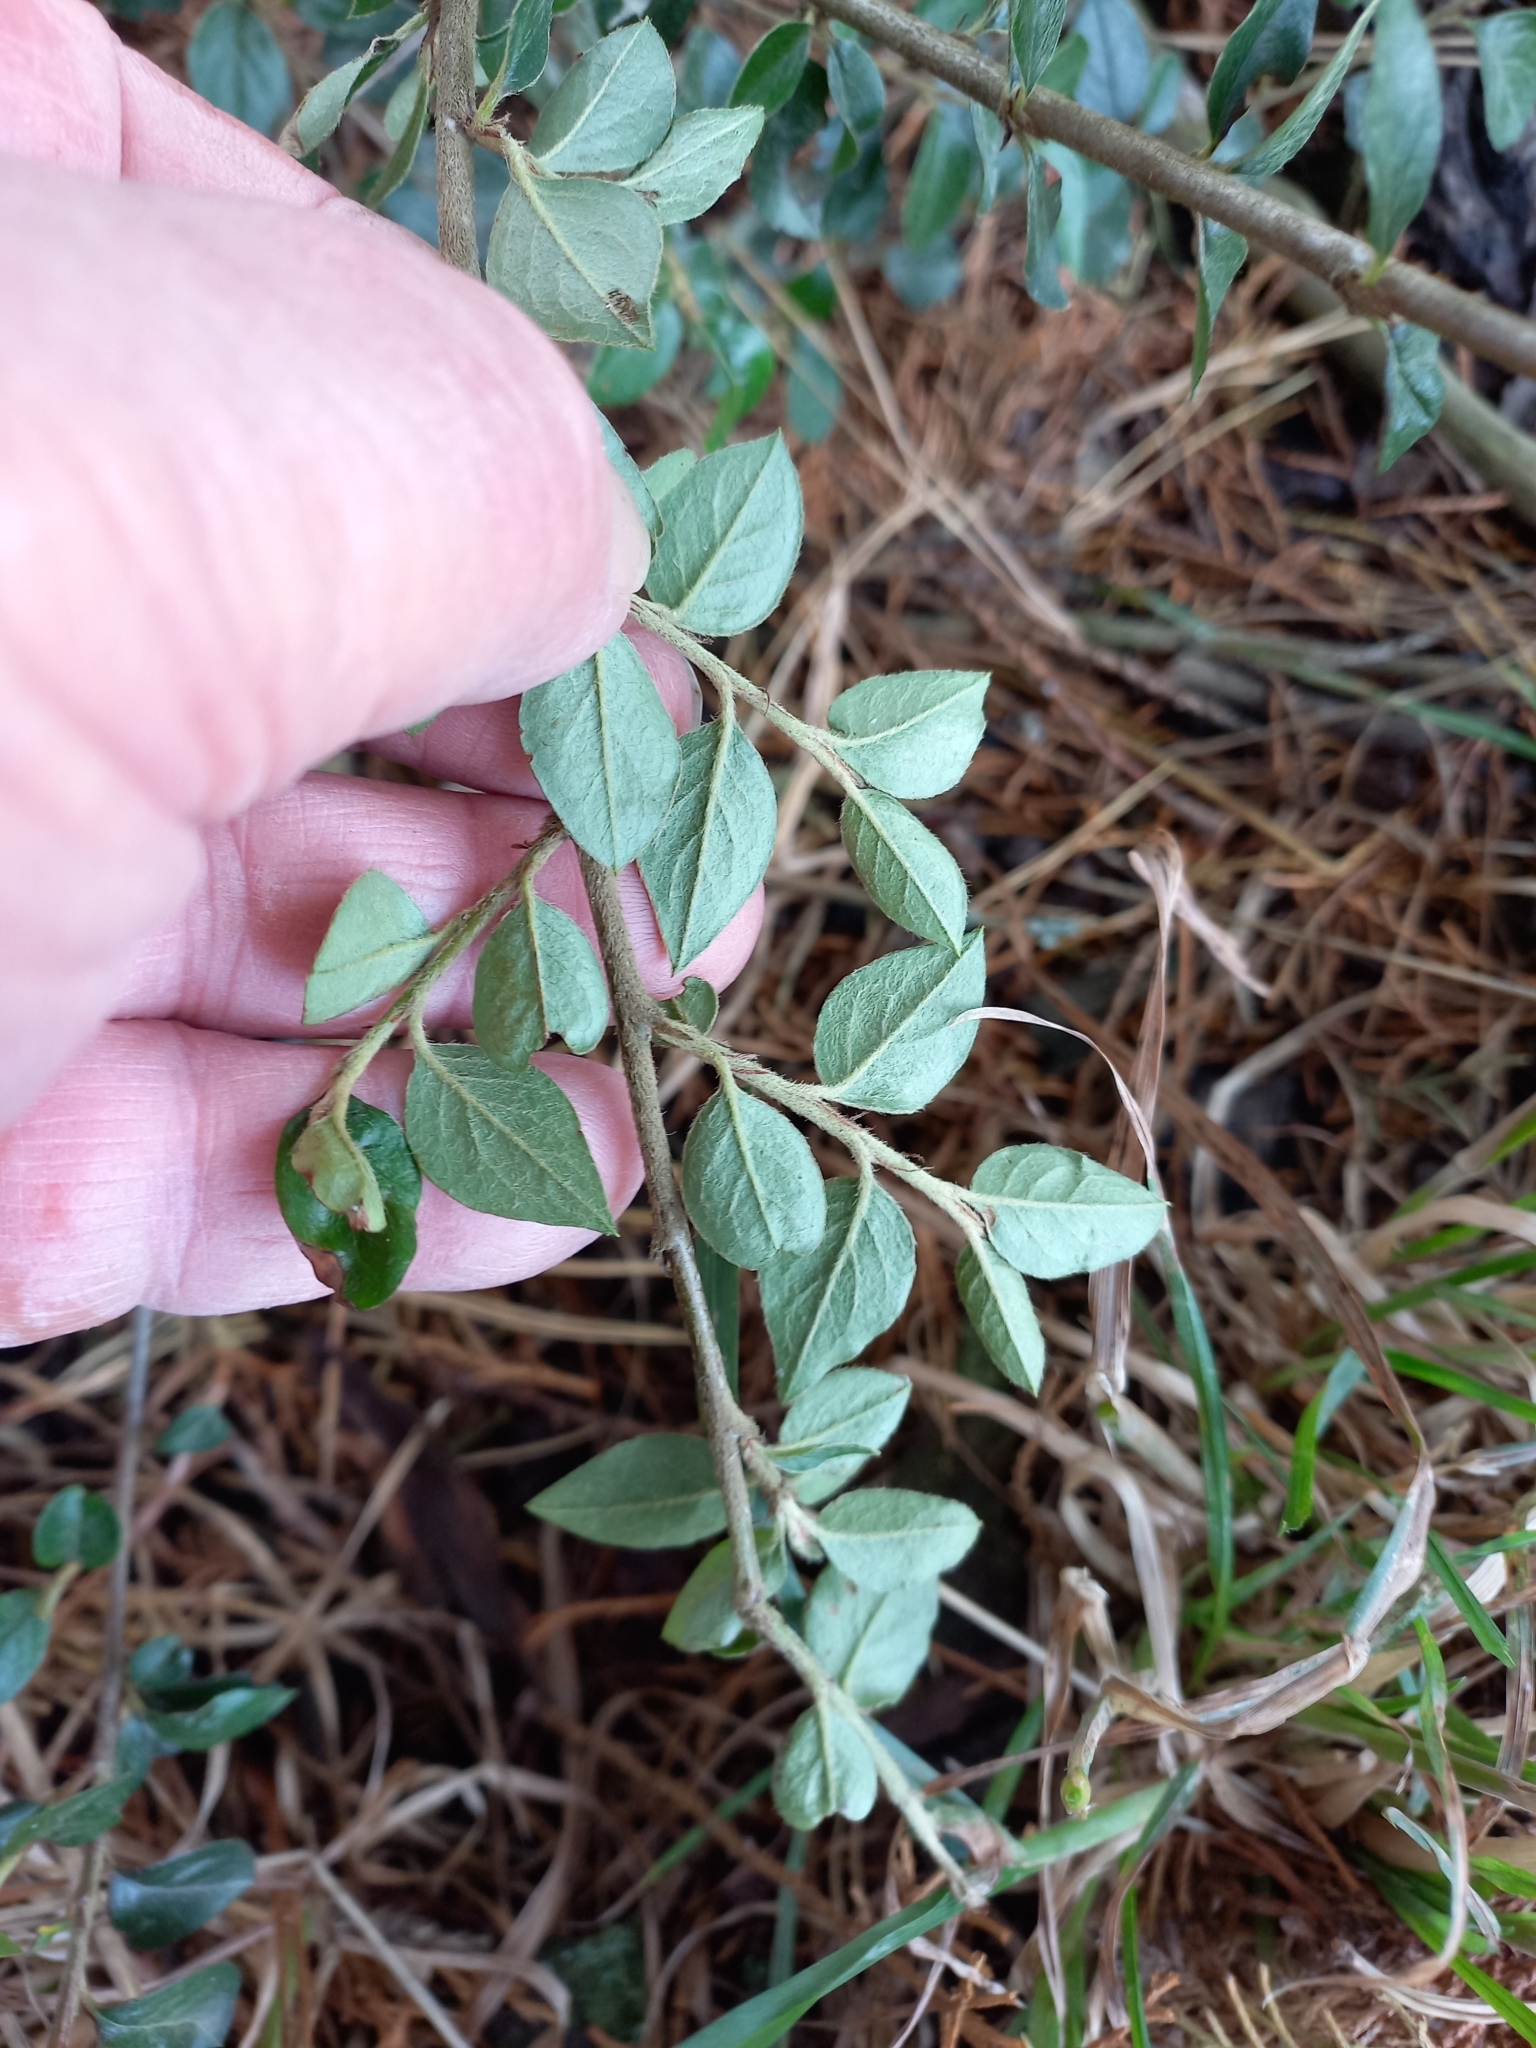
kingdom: Plantae
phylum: Tracheophyta
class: Magnoliopsida
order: Rosales
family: Rosaceae
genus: Cotoneaster
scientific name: Cotoneaster simonsii
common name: Himalayan cotoneaster
